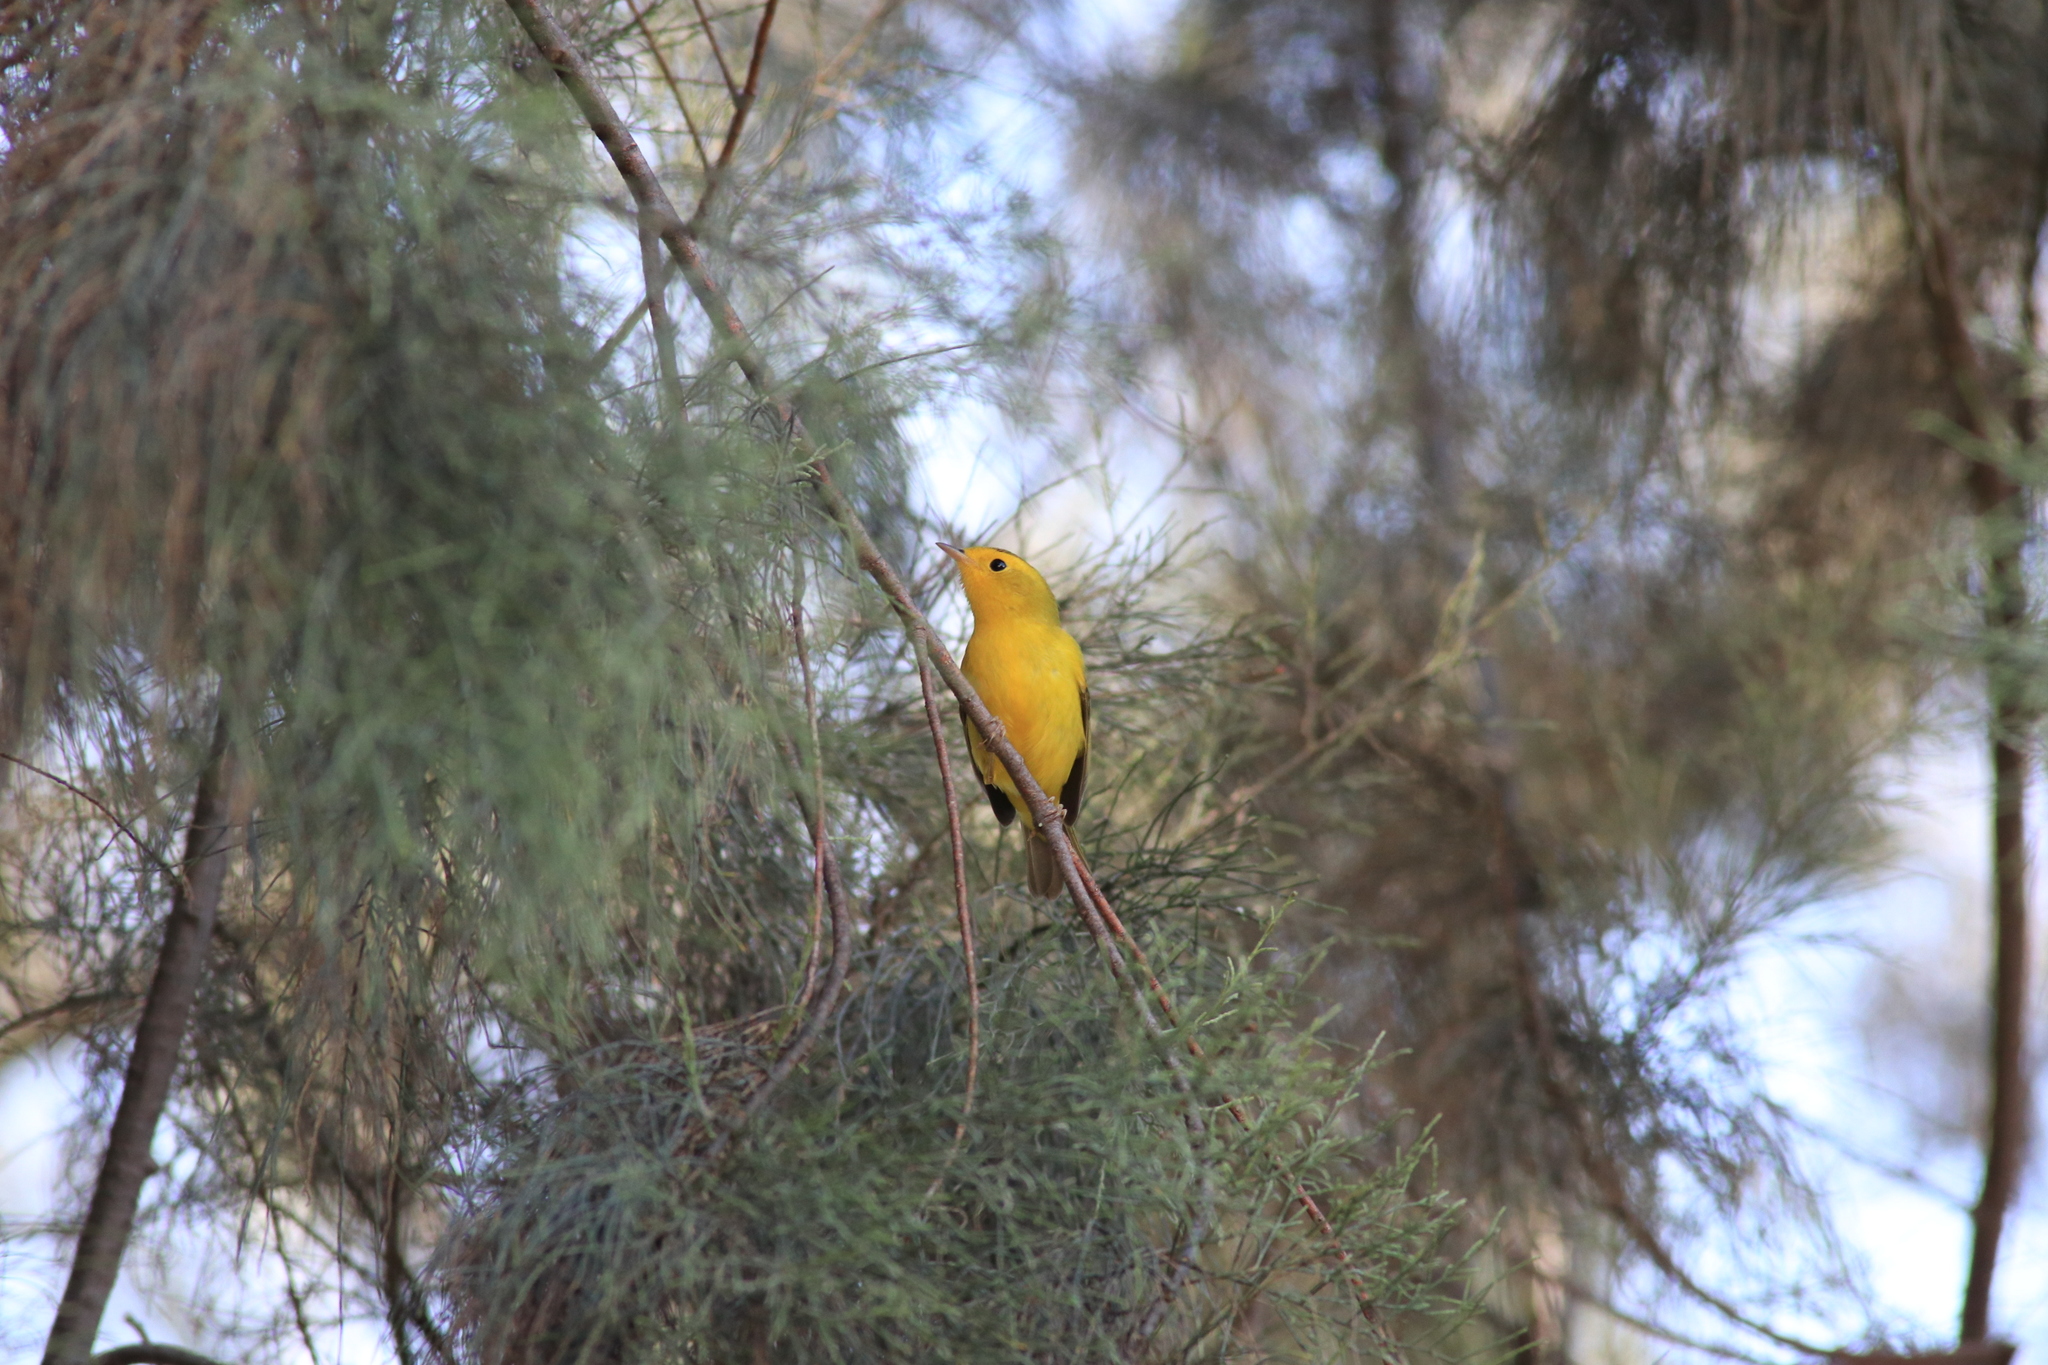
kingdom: Animalia
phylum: Chordata
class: Aves
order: Passeriformes
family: Parulidae
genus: Cardellina
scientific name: Cardellina pusilla
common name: Wilson's warbler
